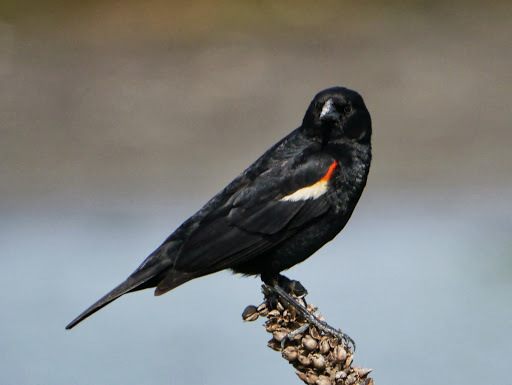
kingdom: Animalia
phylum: Chordata
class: Aves
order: Passeriformes
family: Icteridae
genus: Agelaius
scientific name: Agelaius phoeniceus
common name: Red-winged blackbird
